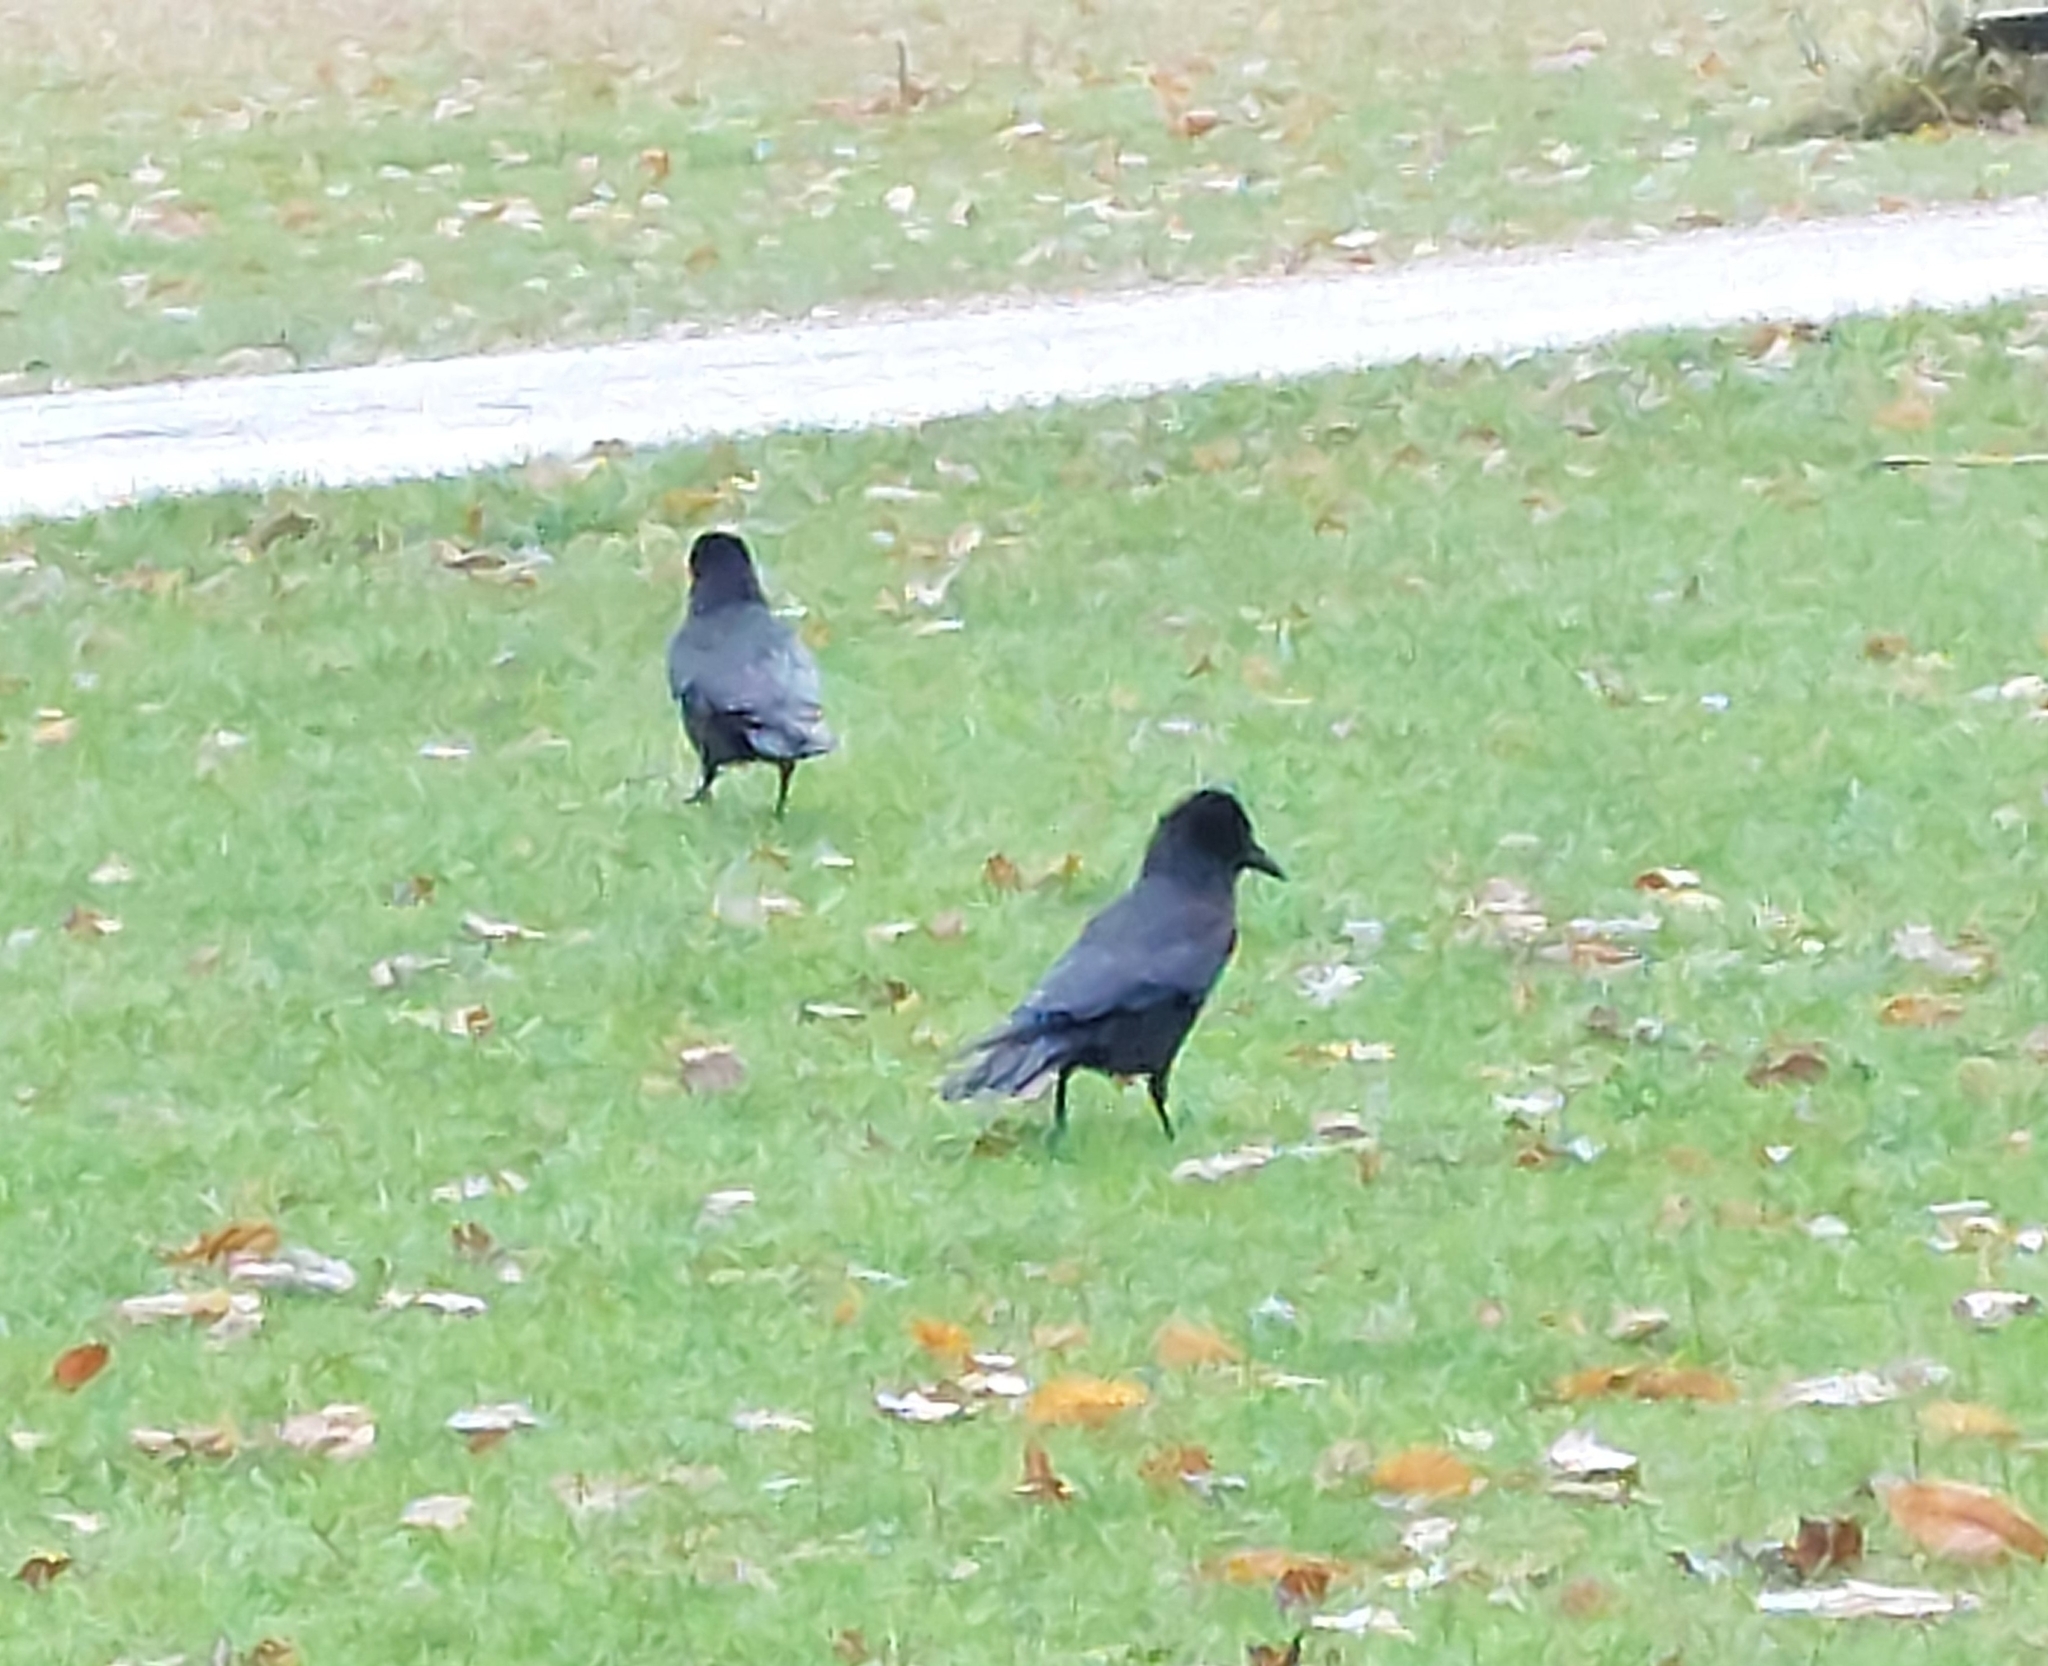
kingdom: Animalia
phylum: Chordata
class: Aves
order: Passeriformes
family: Corvidae
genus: Corvus
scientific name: Corvus corone
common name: Carrion crow
